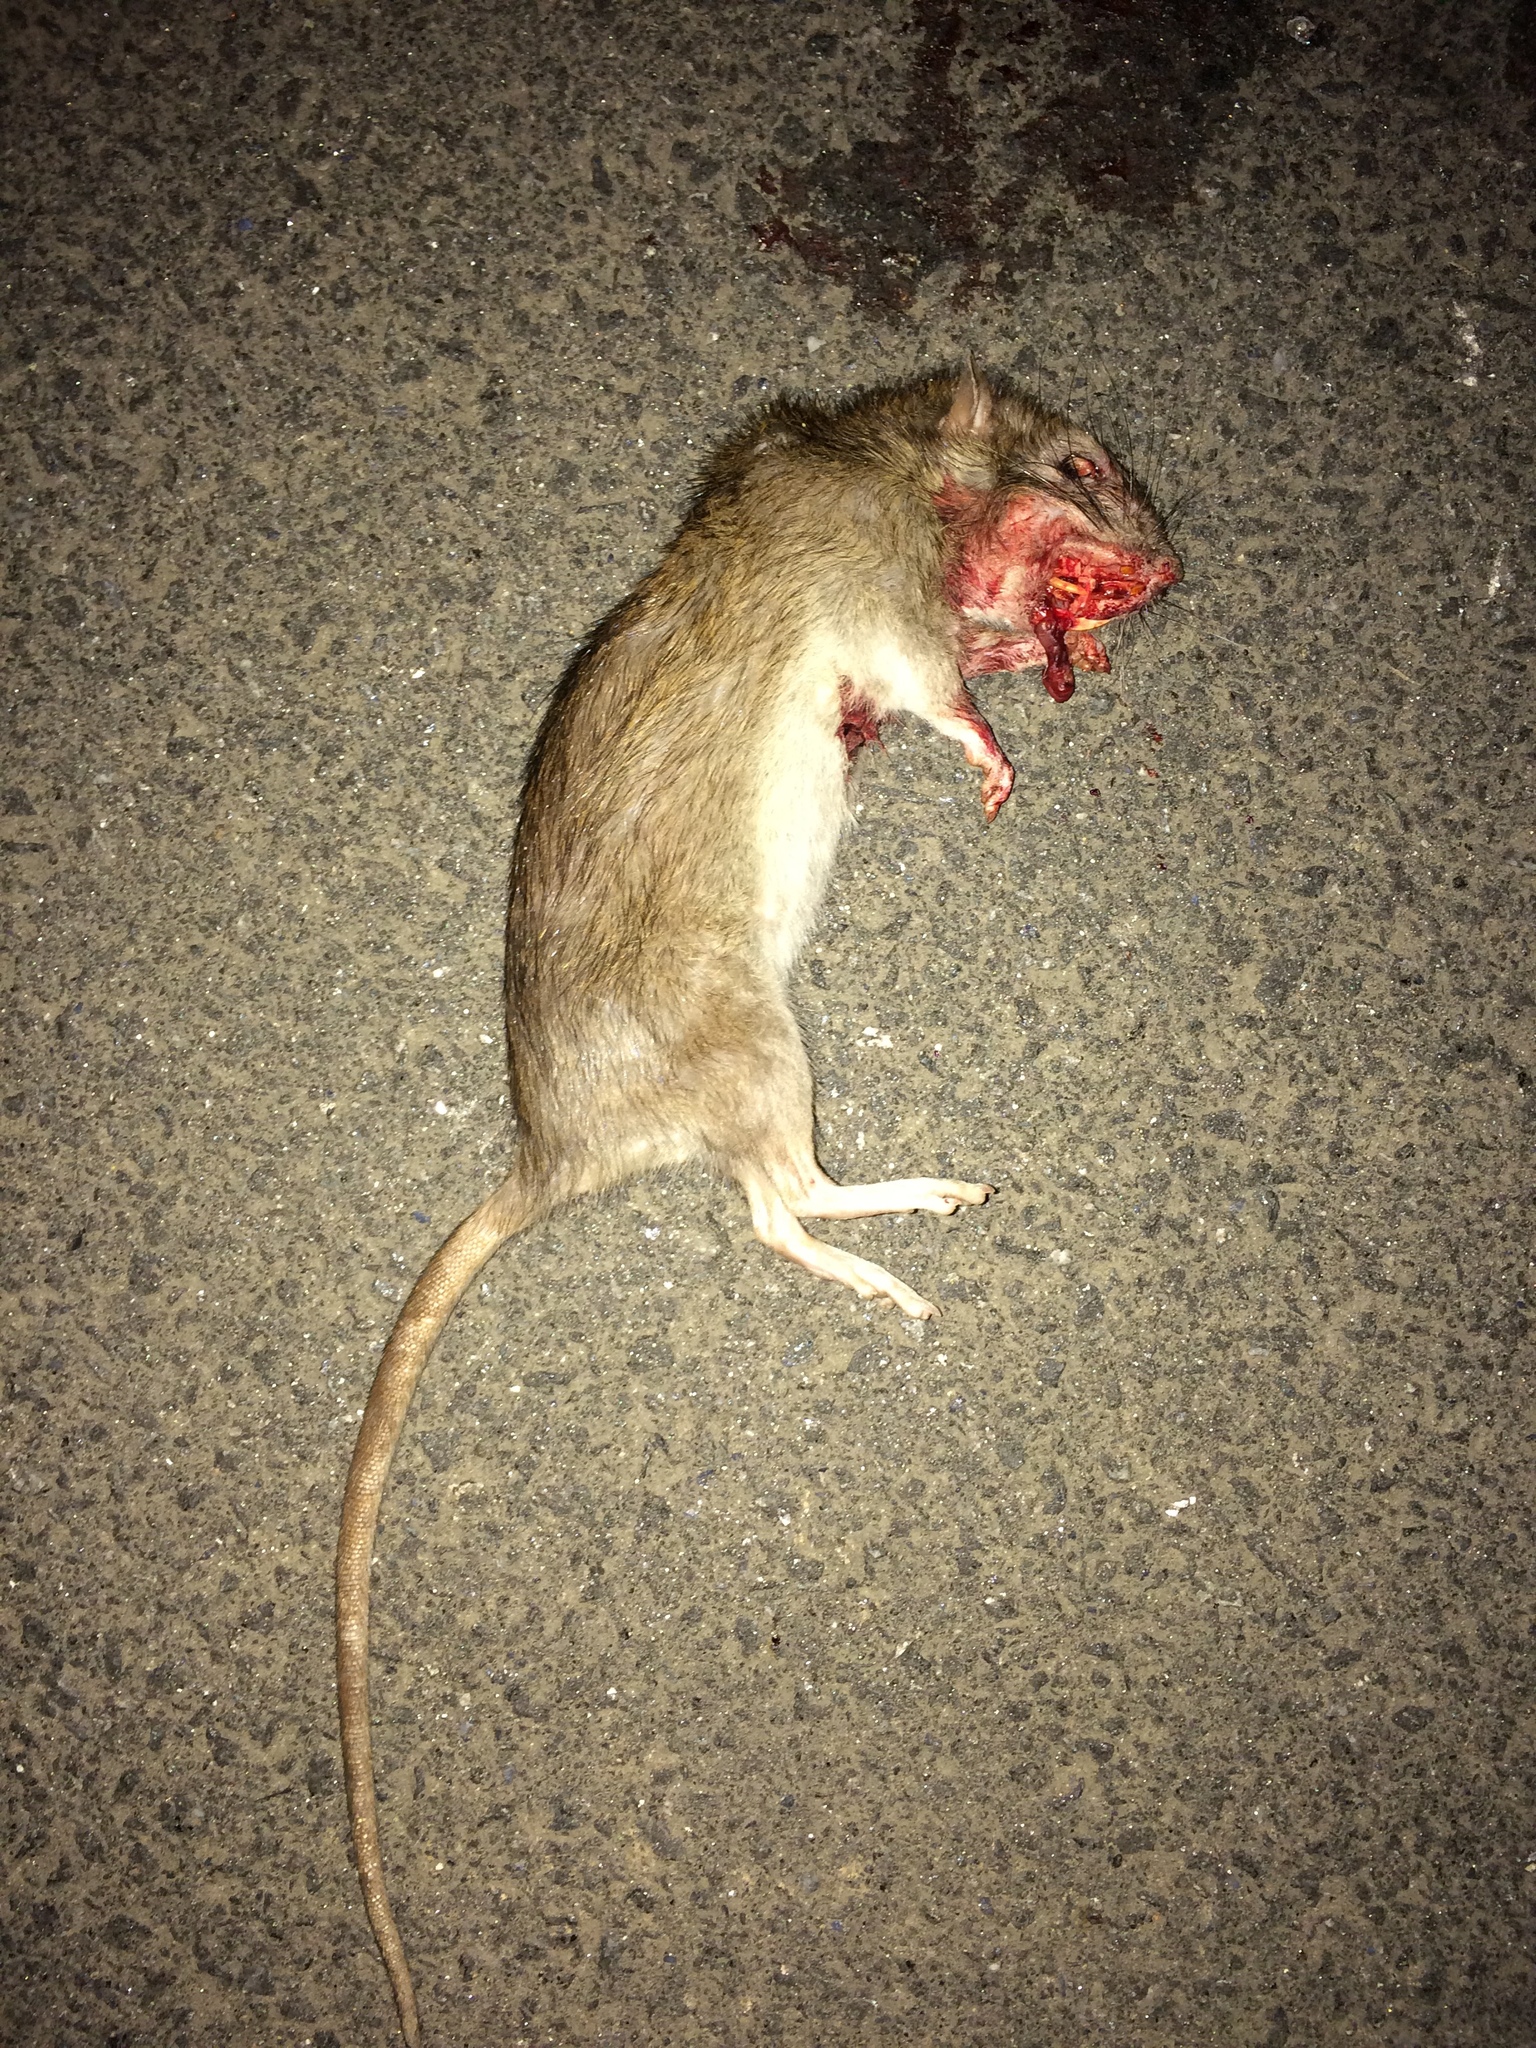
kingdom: Animalia
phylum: Chordata
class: Mammalia
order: Rodentia
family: Muridae
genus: Rattus
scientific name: Rattus norvegicus
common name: Brown rat
